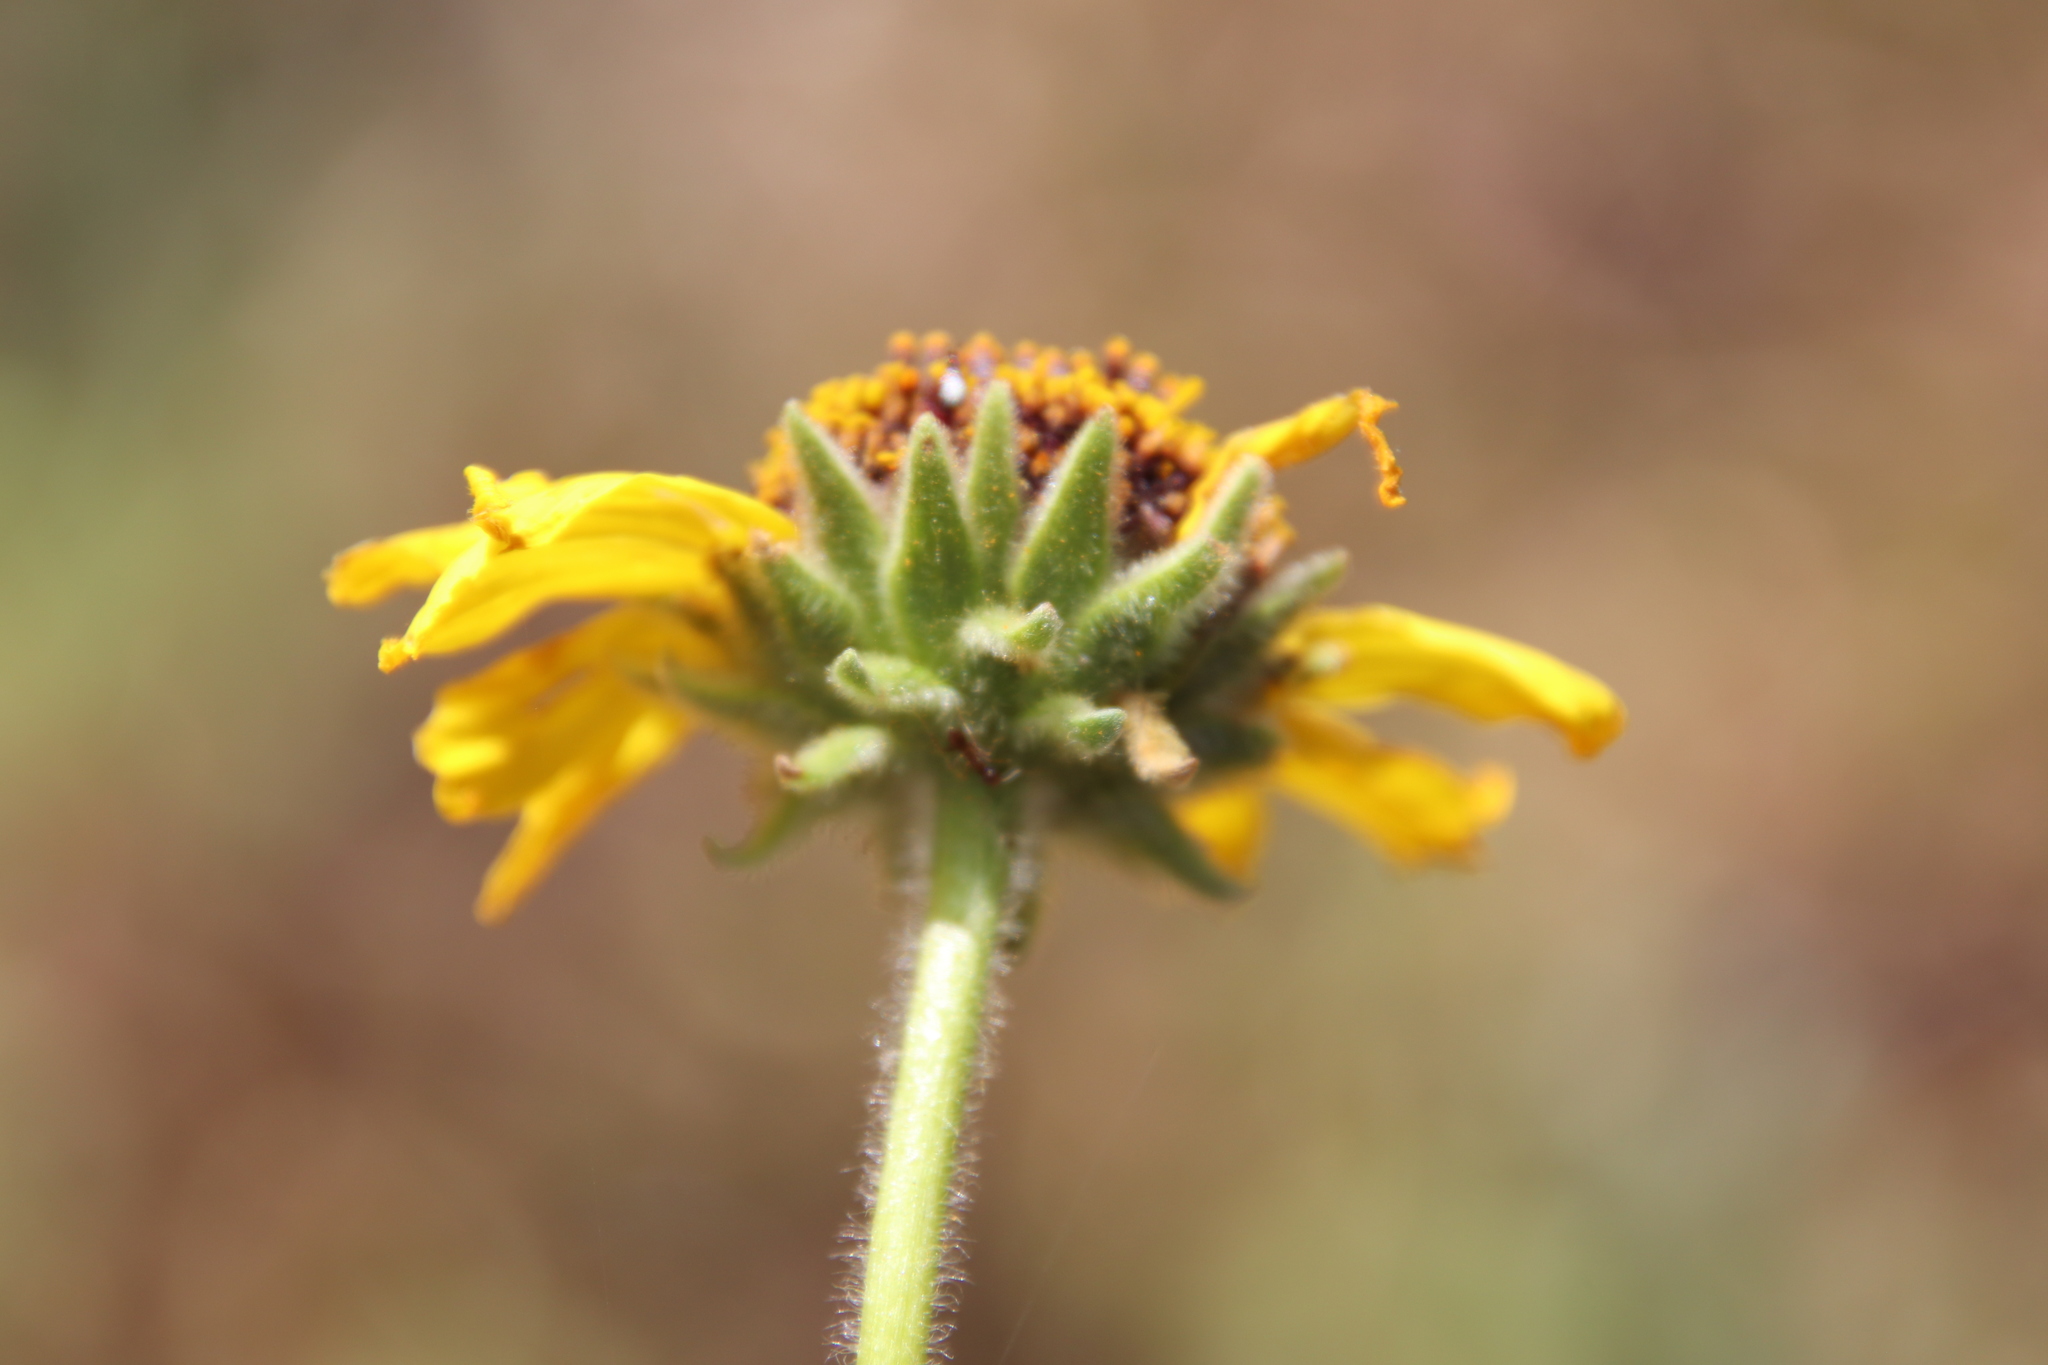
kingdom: Plantae
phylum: Tracheophyta
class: Magnoliopsida
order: Asterales
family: Asteraceae
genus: Encelia
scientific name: Encelia californica
